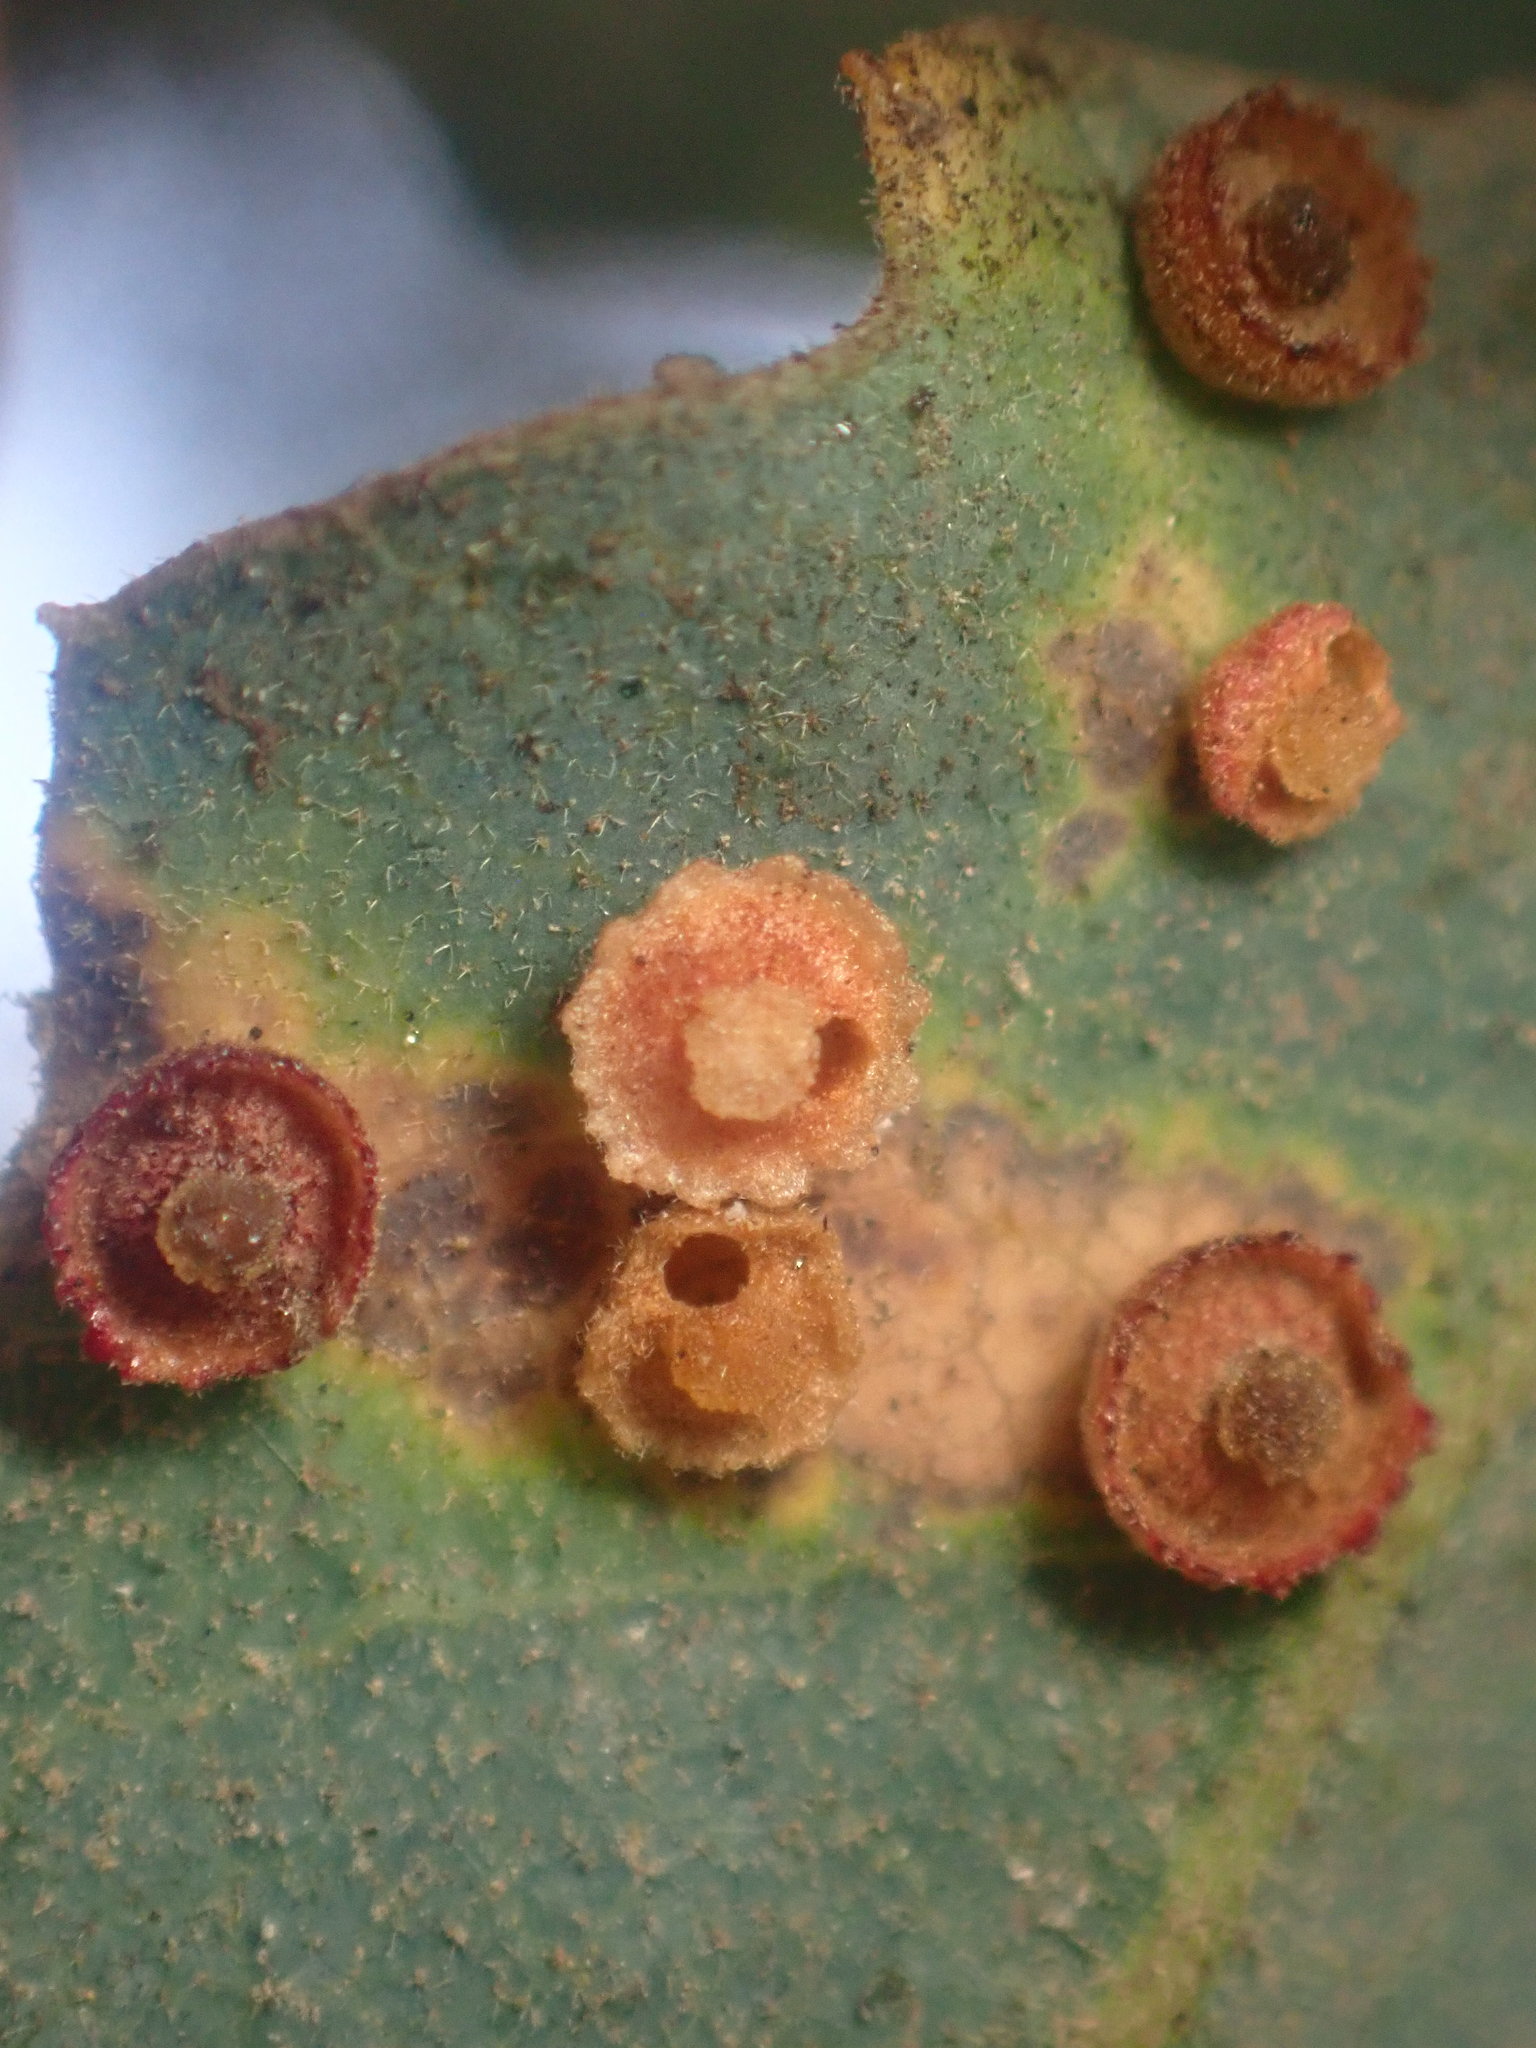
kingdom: Animalia
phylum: Arthropoda
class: Insecta
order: Hymenoptera
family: Cynipidae
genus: Andricus
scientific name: Andricus
